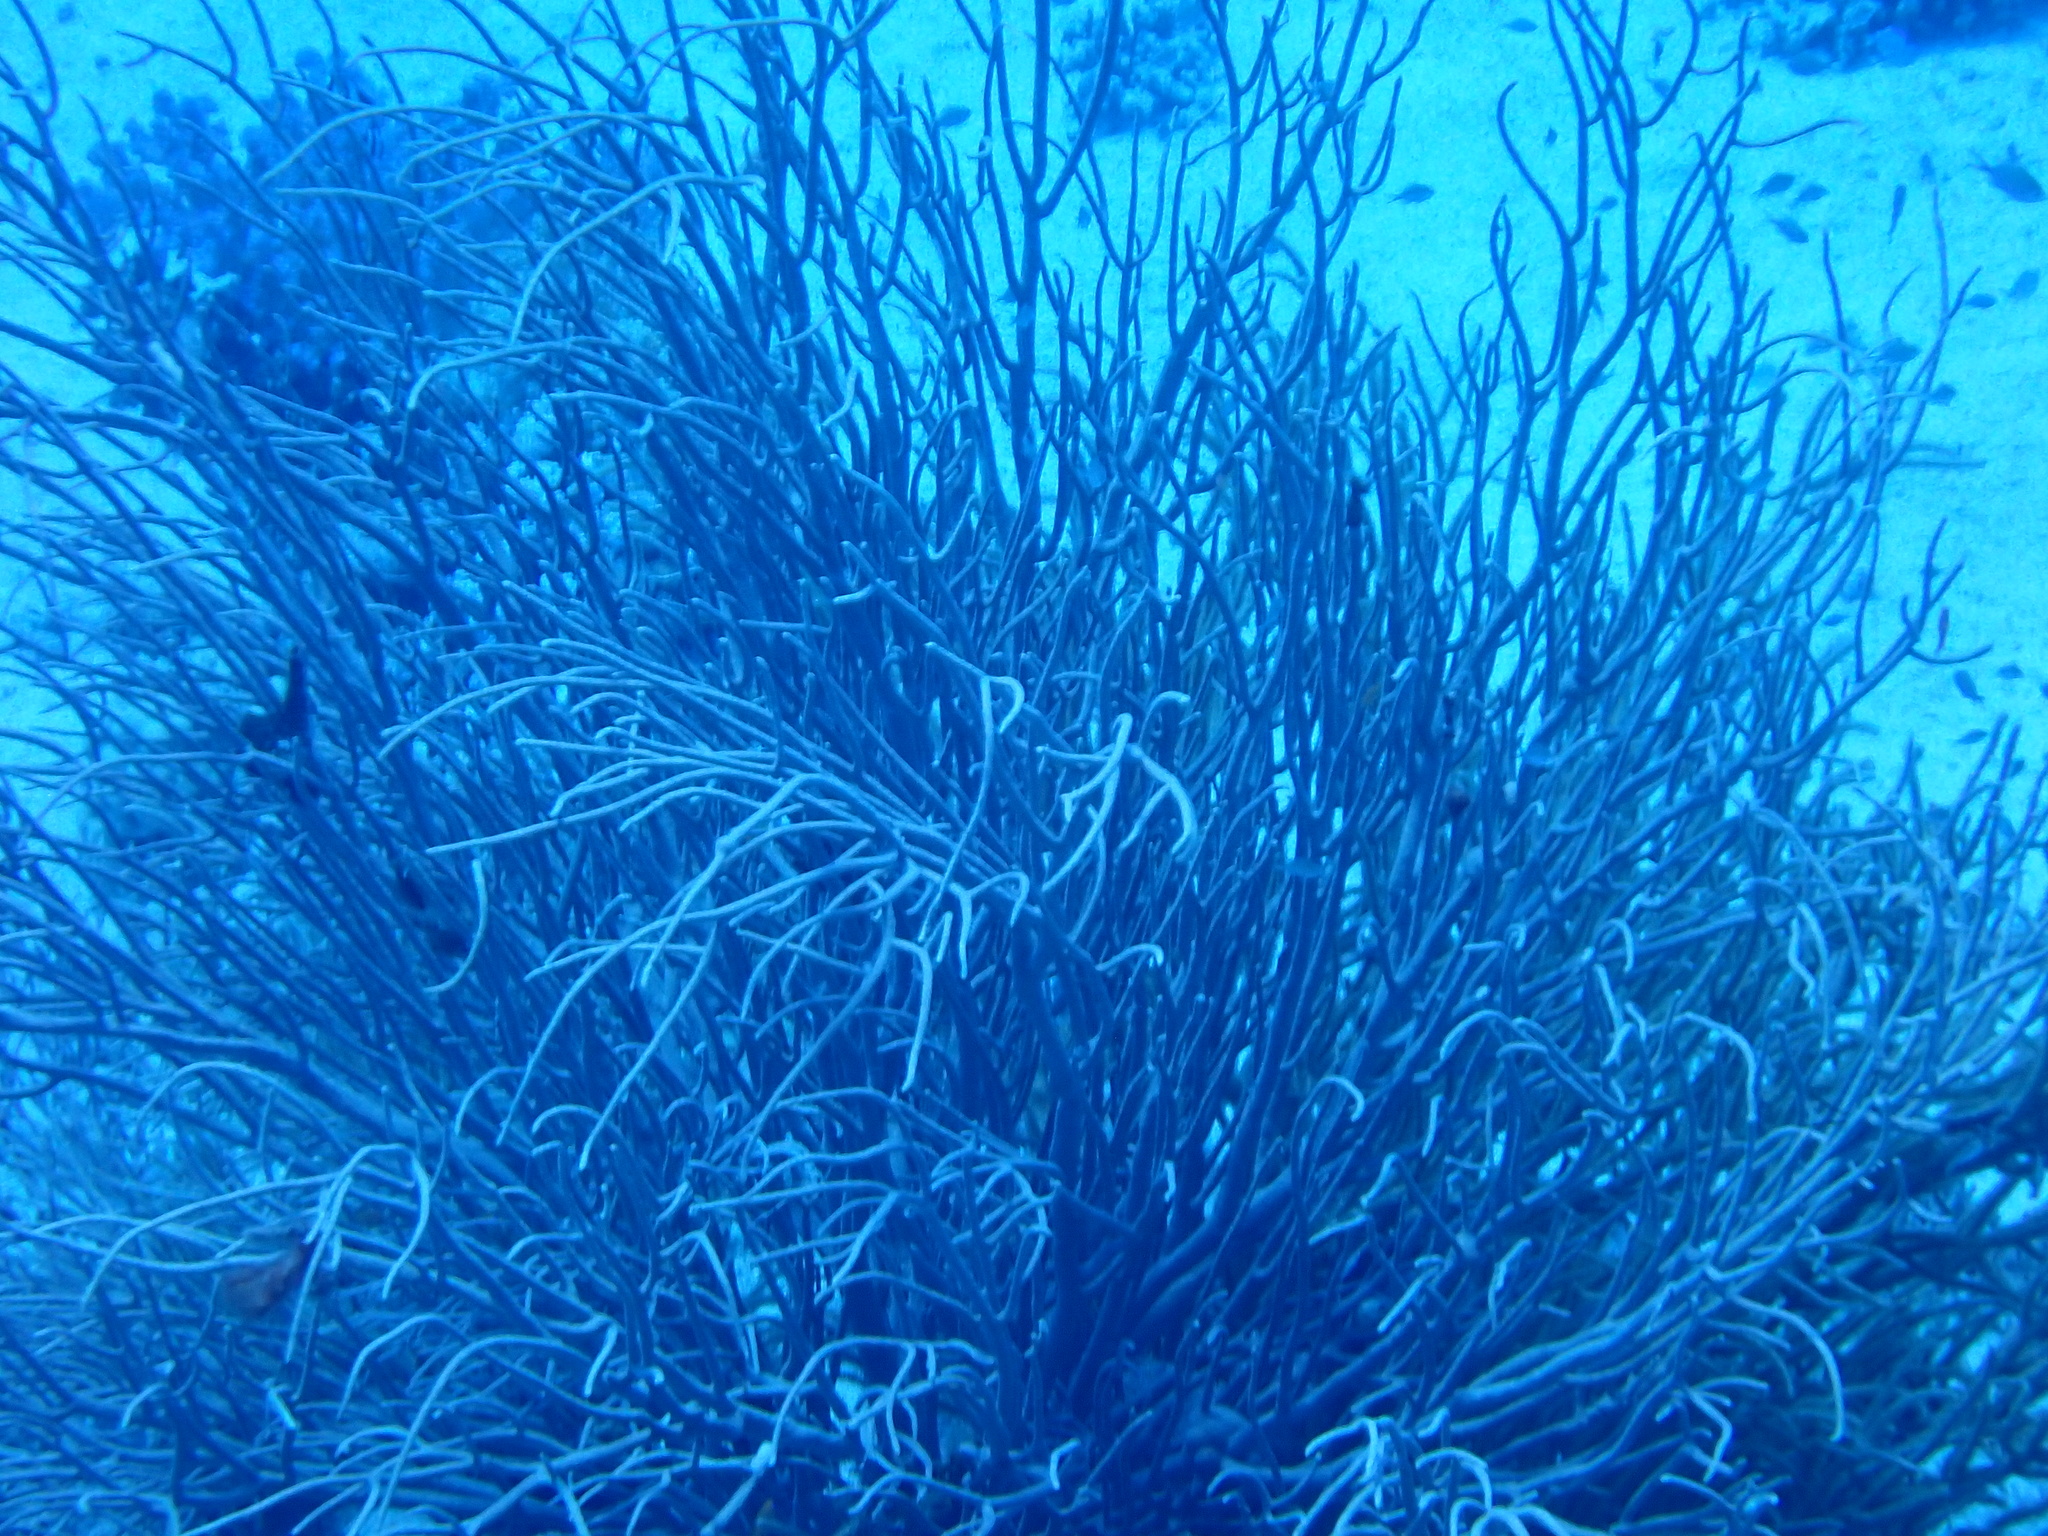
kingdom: Animalia
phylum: Cnidaria
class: Anthozoa
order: Malacalcyonacea
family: Isididae
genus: Rumphella
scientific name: Rumphella torta
